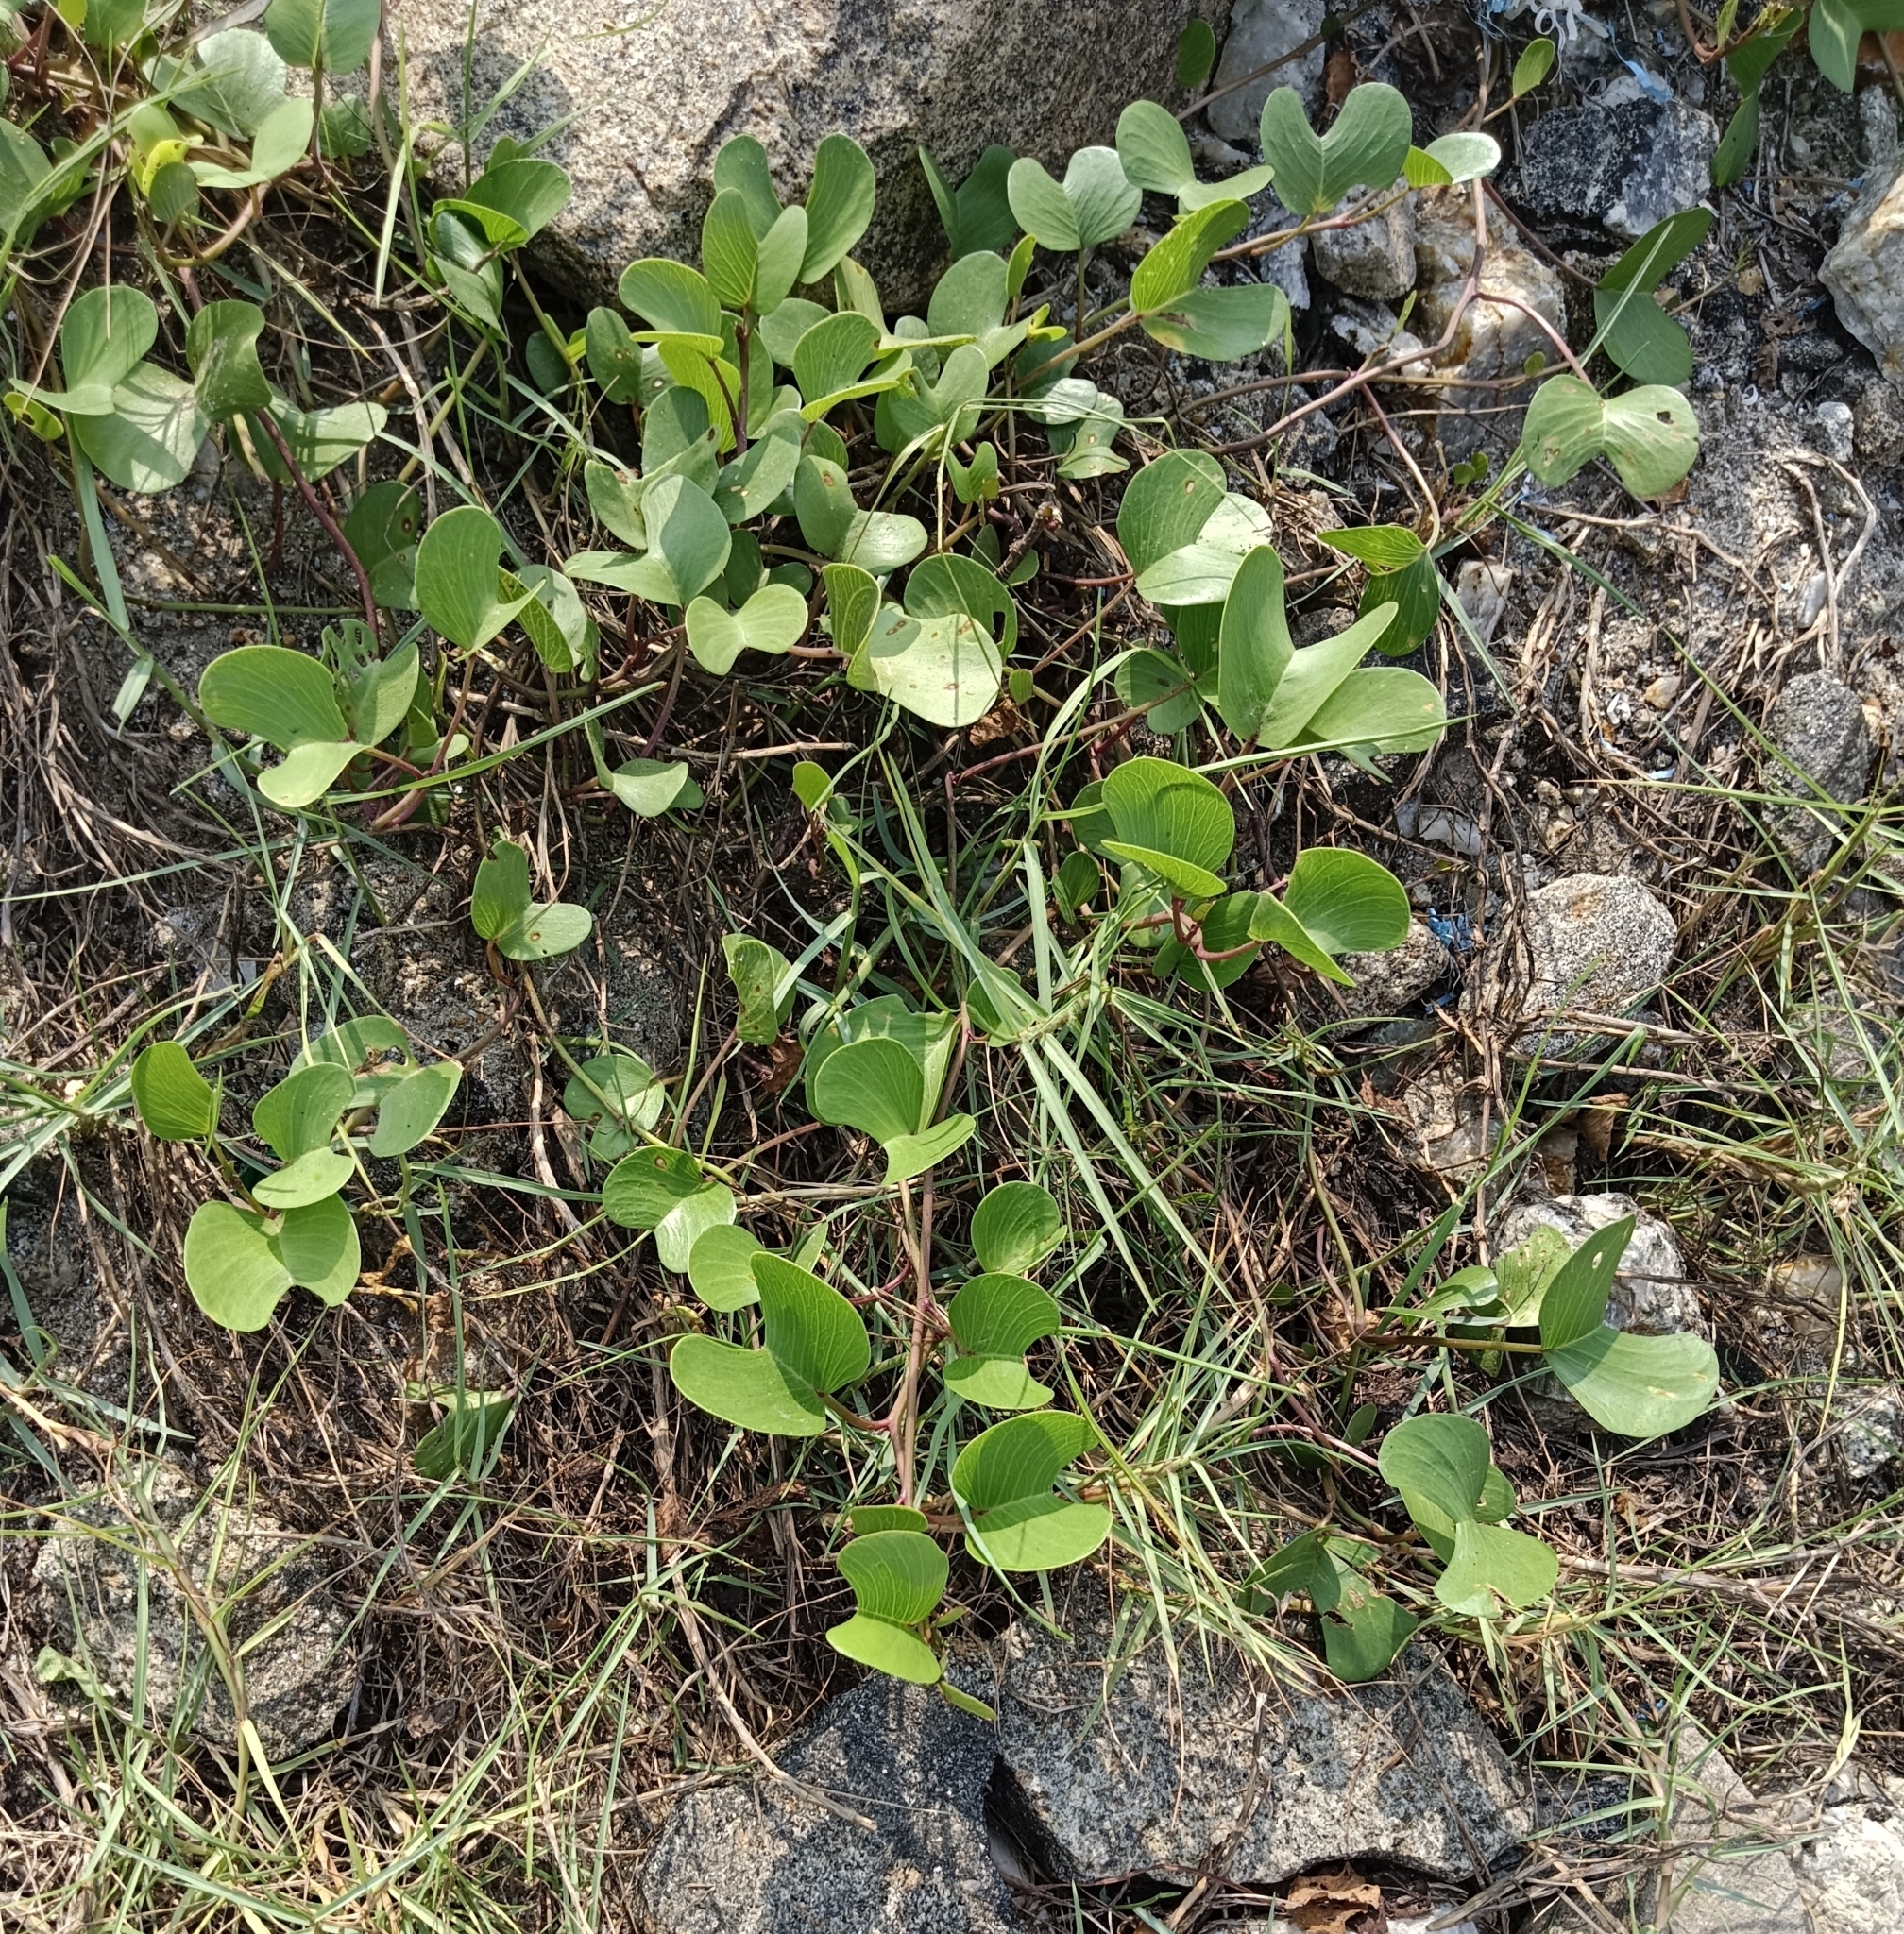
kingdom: Plantae
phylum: Tracheophyta
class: Magnoliopsida
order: Solanales
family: Convolvulaceae
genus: Ipomoea
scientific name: Ipomoea pes-caprae
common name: Beach morning glory
